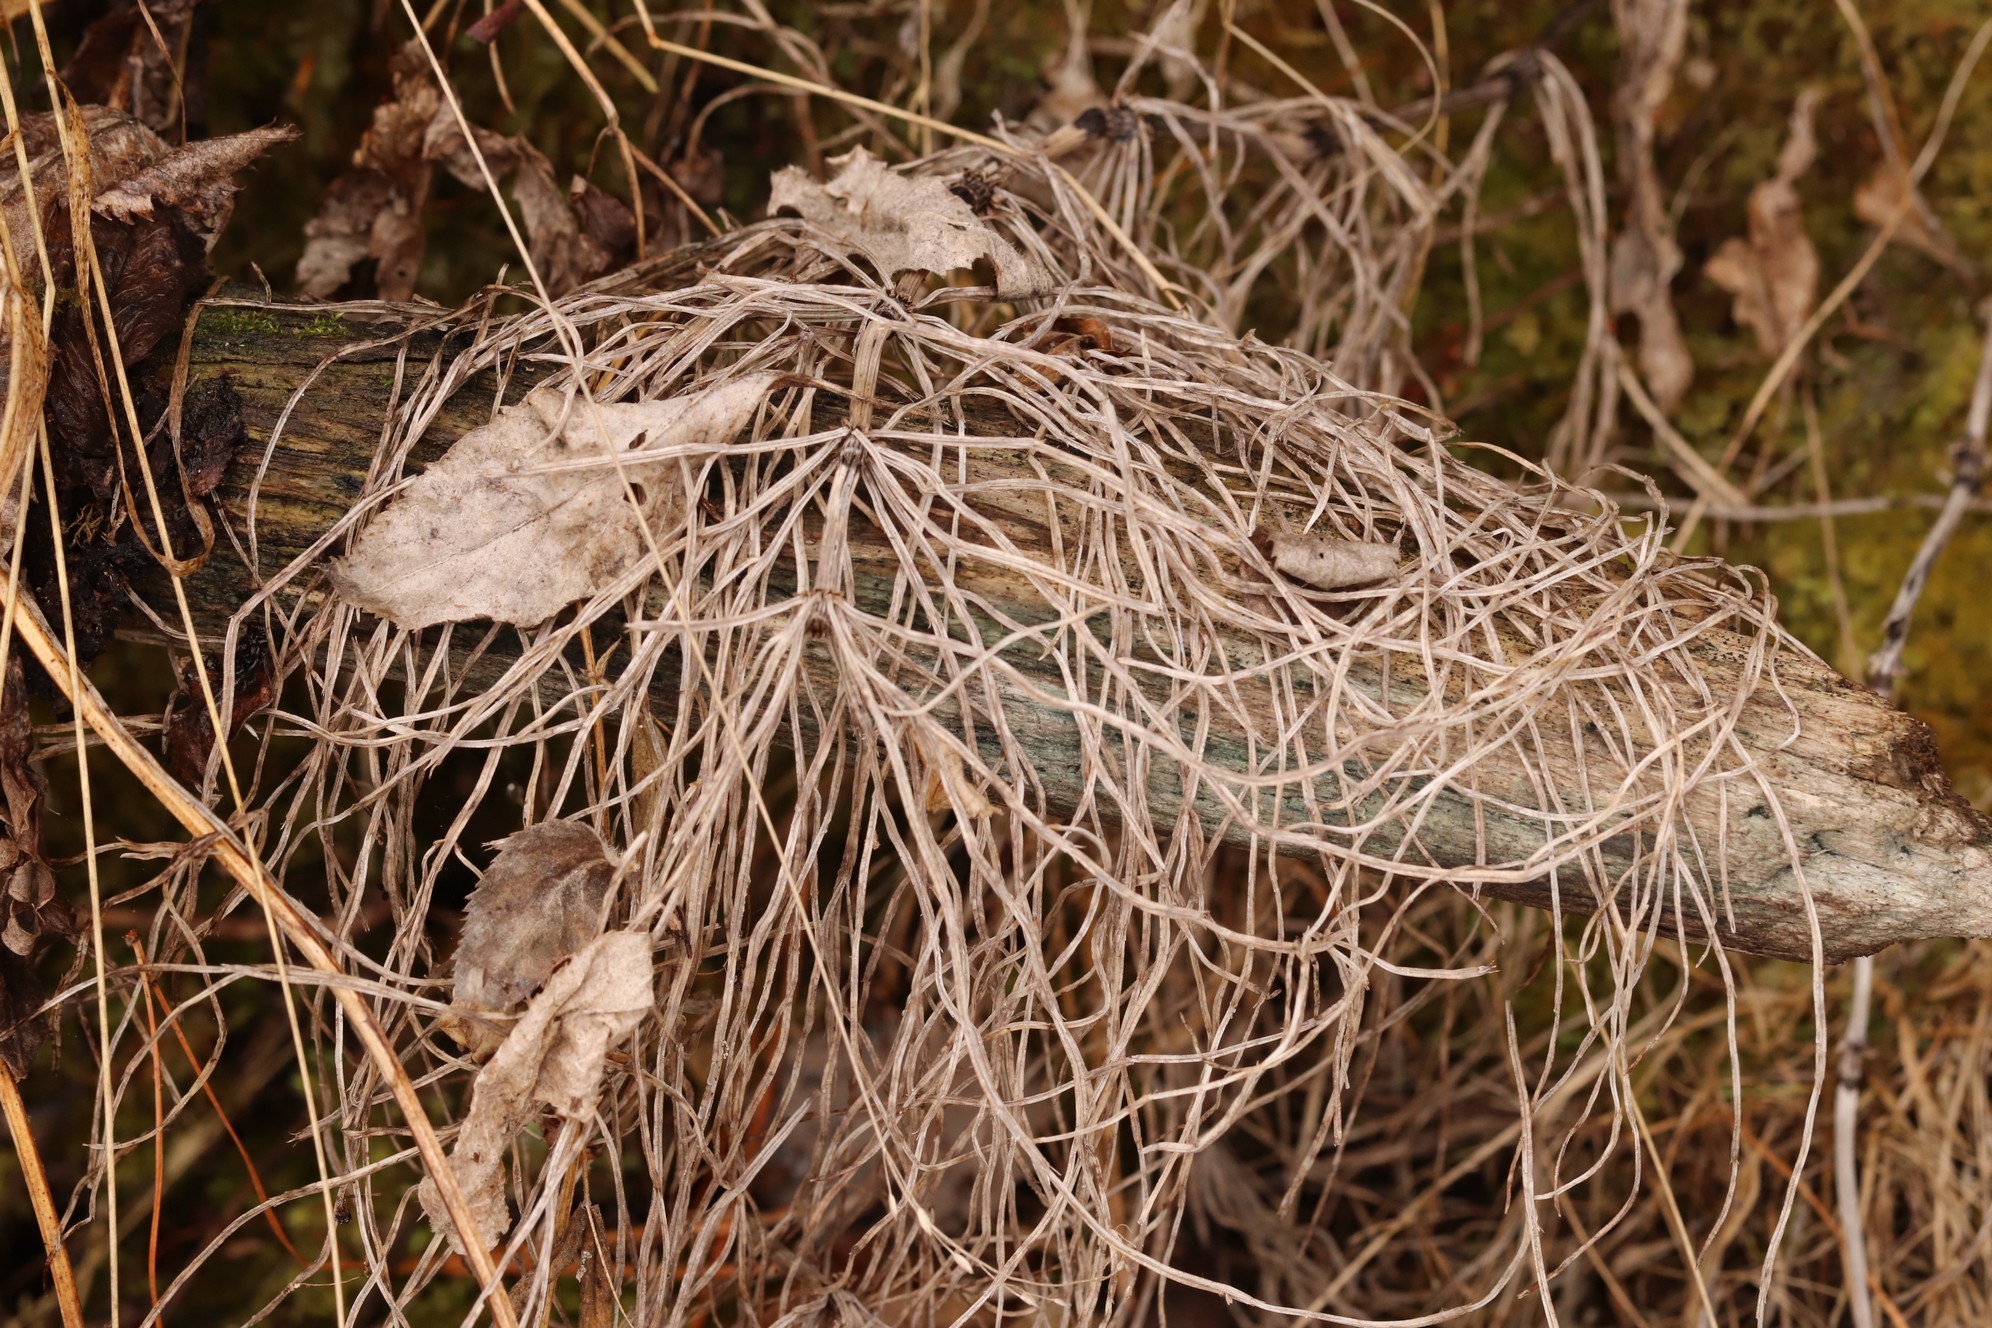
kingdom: Plantae
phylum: Tracheophyta
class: Polypodiopsida
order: Equisetales
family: Equisetaceae
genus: Equisetum
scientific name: Equisetum sylvaticum
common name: Wood horsetail
